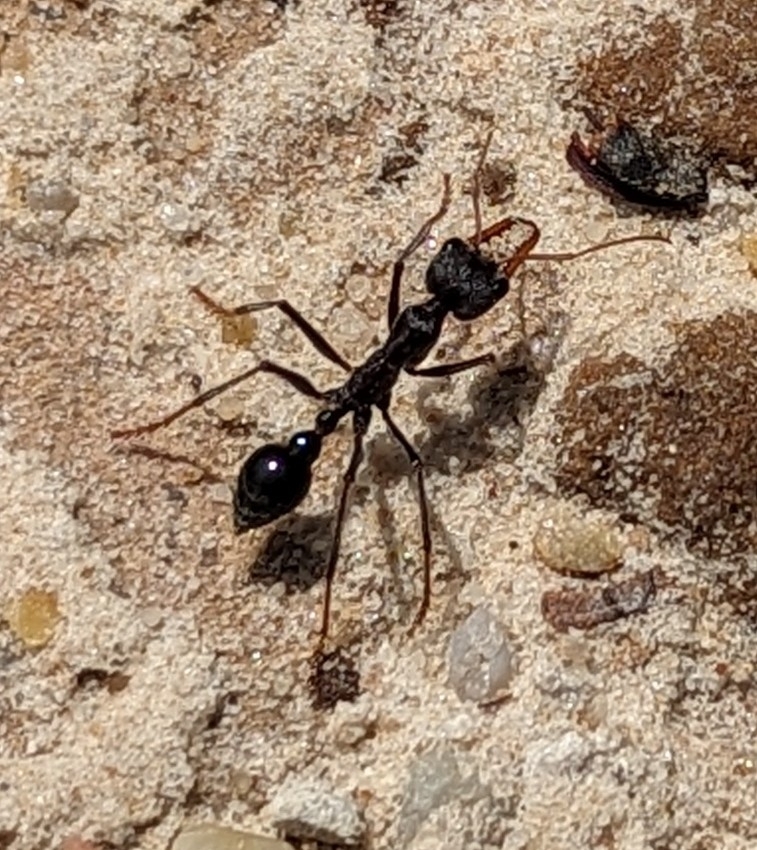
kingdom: Animalia
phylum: Arthropoda
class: Insecta
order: Hymenoptera
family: Formicidae
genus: Myrmecia
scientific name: Myrmecia simillima
